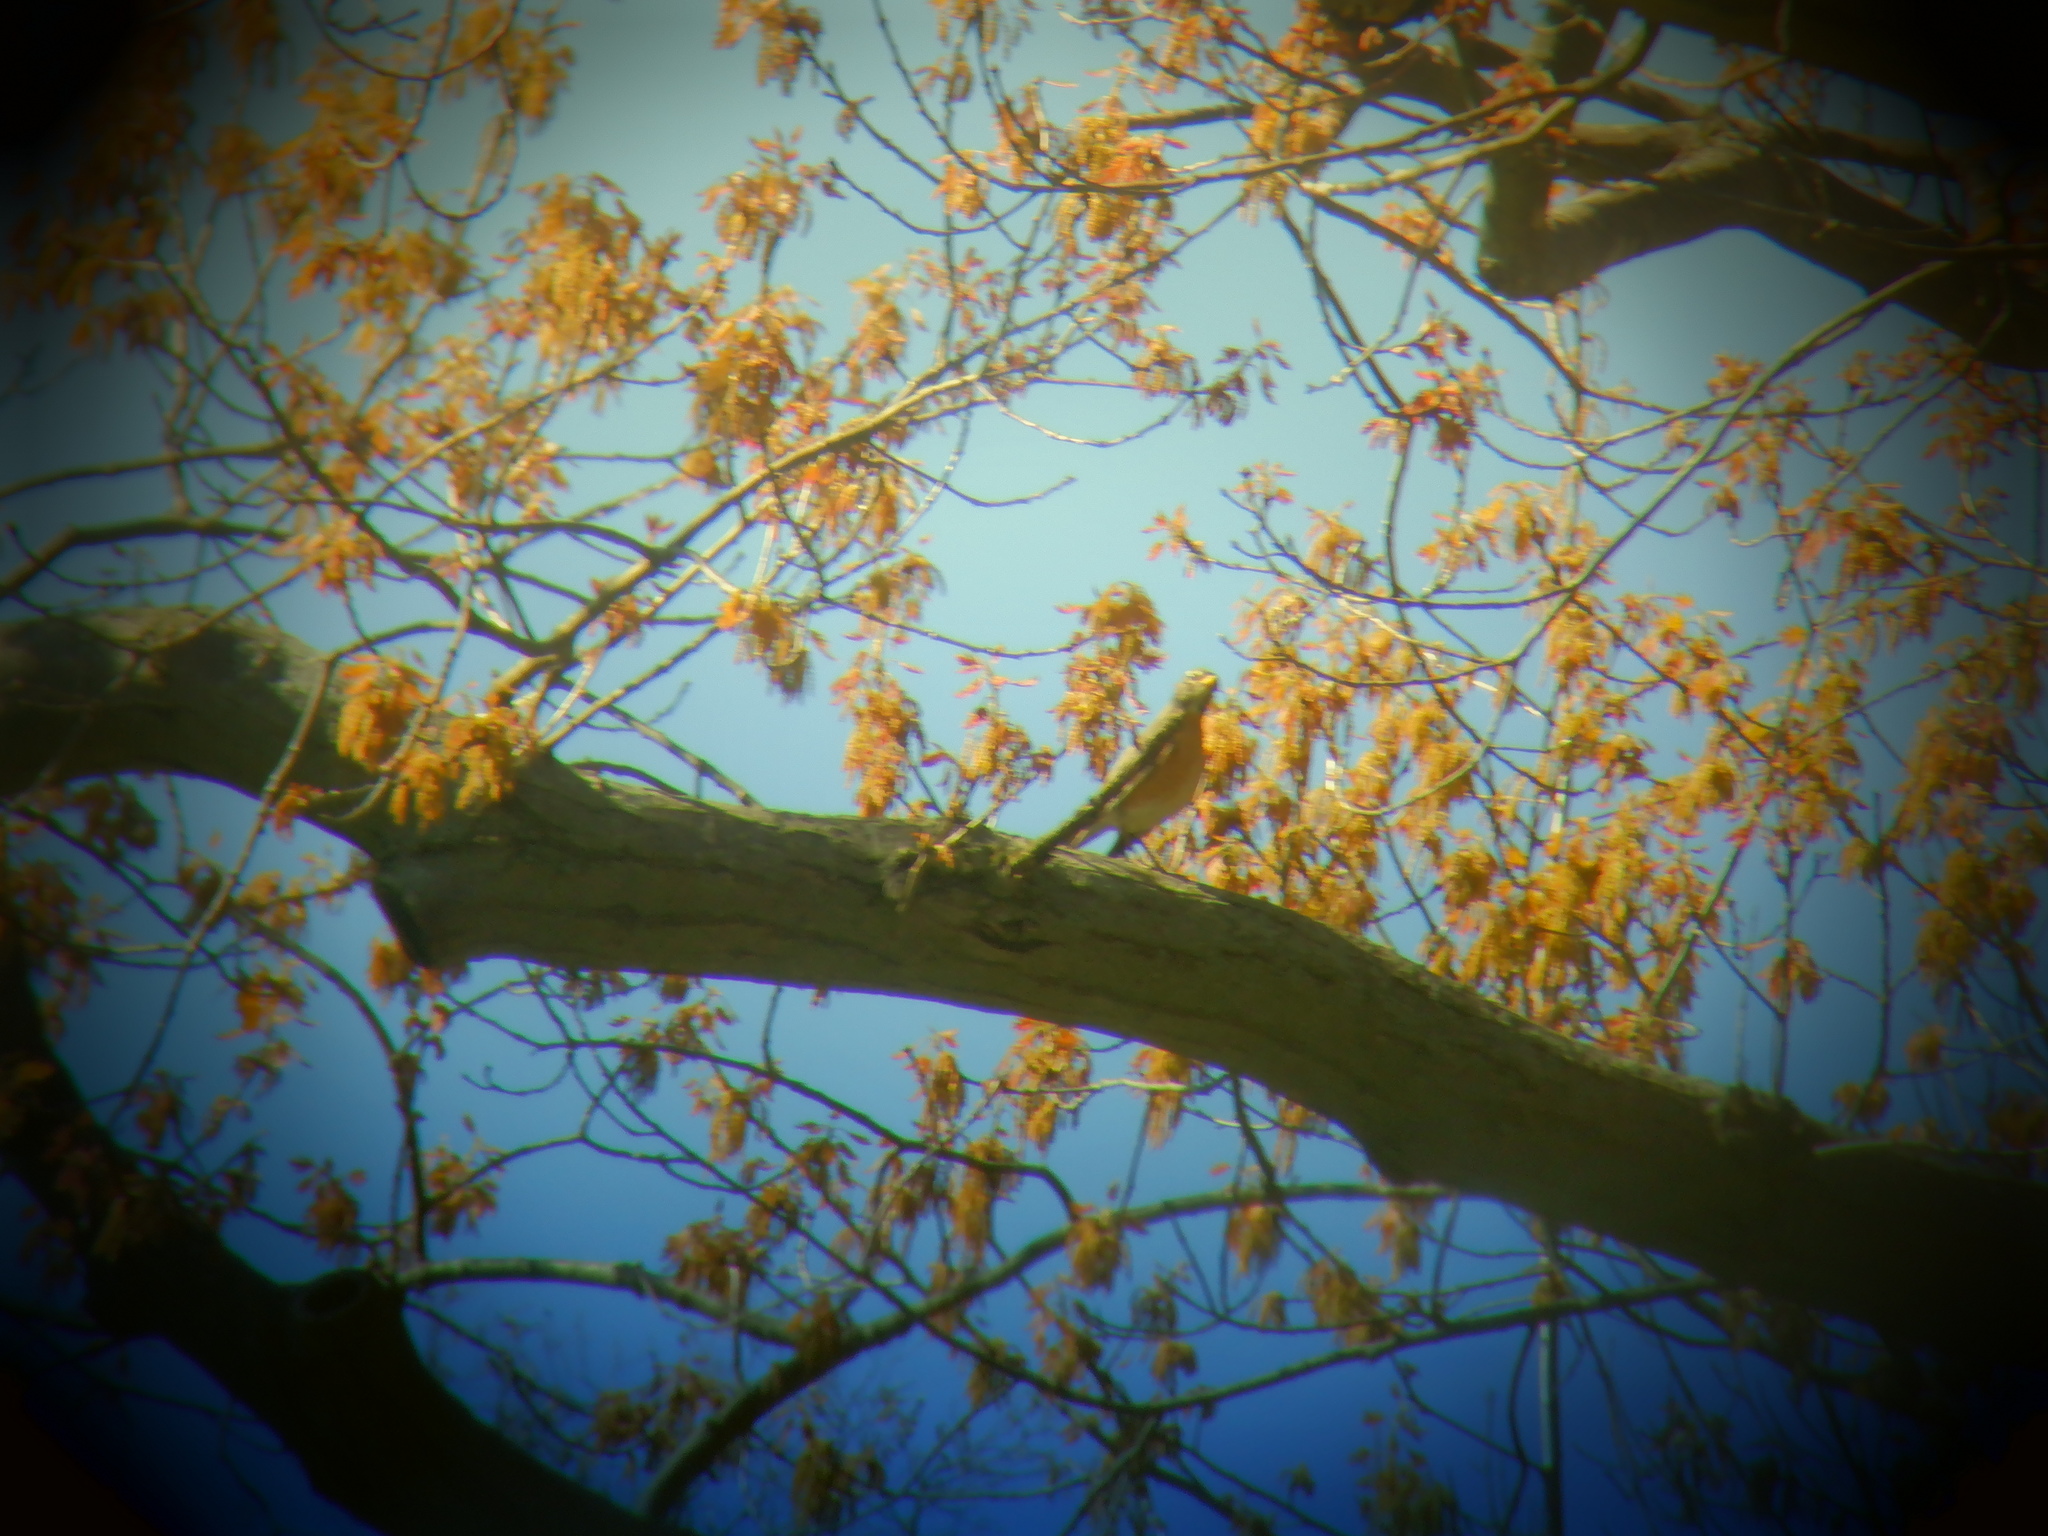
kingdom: Animalia
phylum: Chordata
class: Aves
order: Passeriformes
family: Turdidae
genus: Turdus
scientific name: Turdus migratorius
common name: American robin
